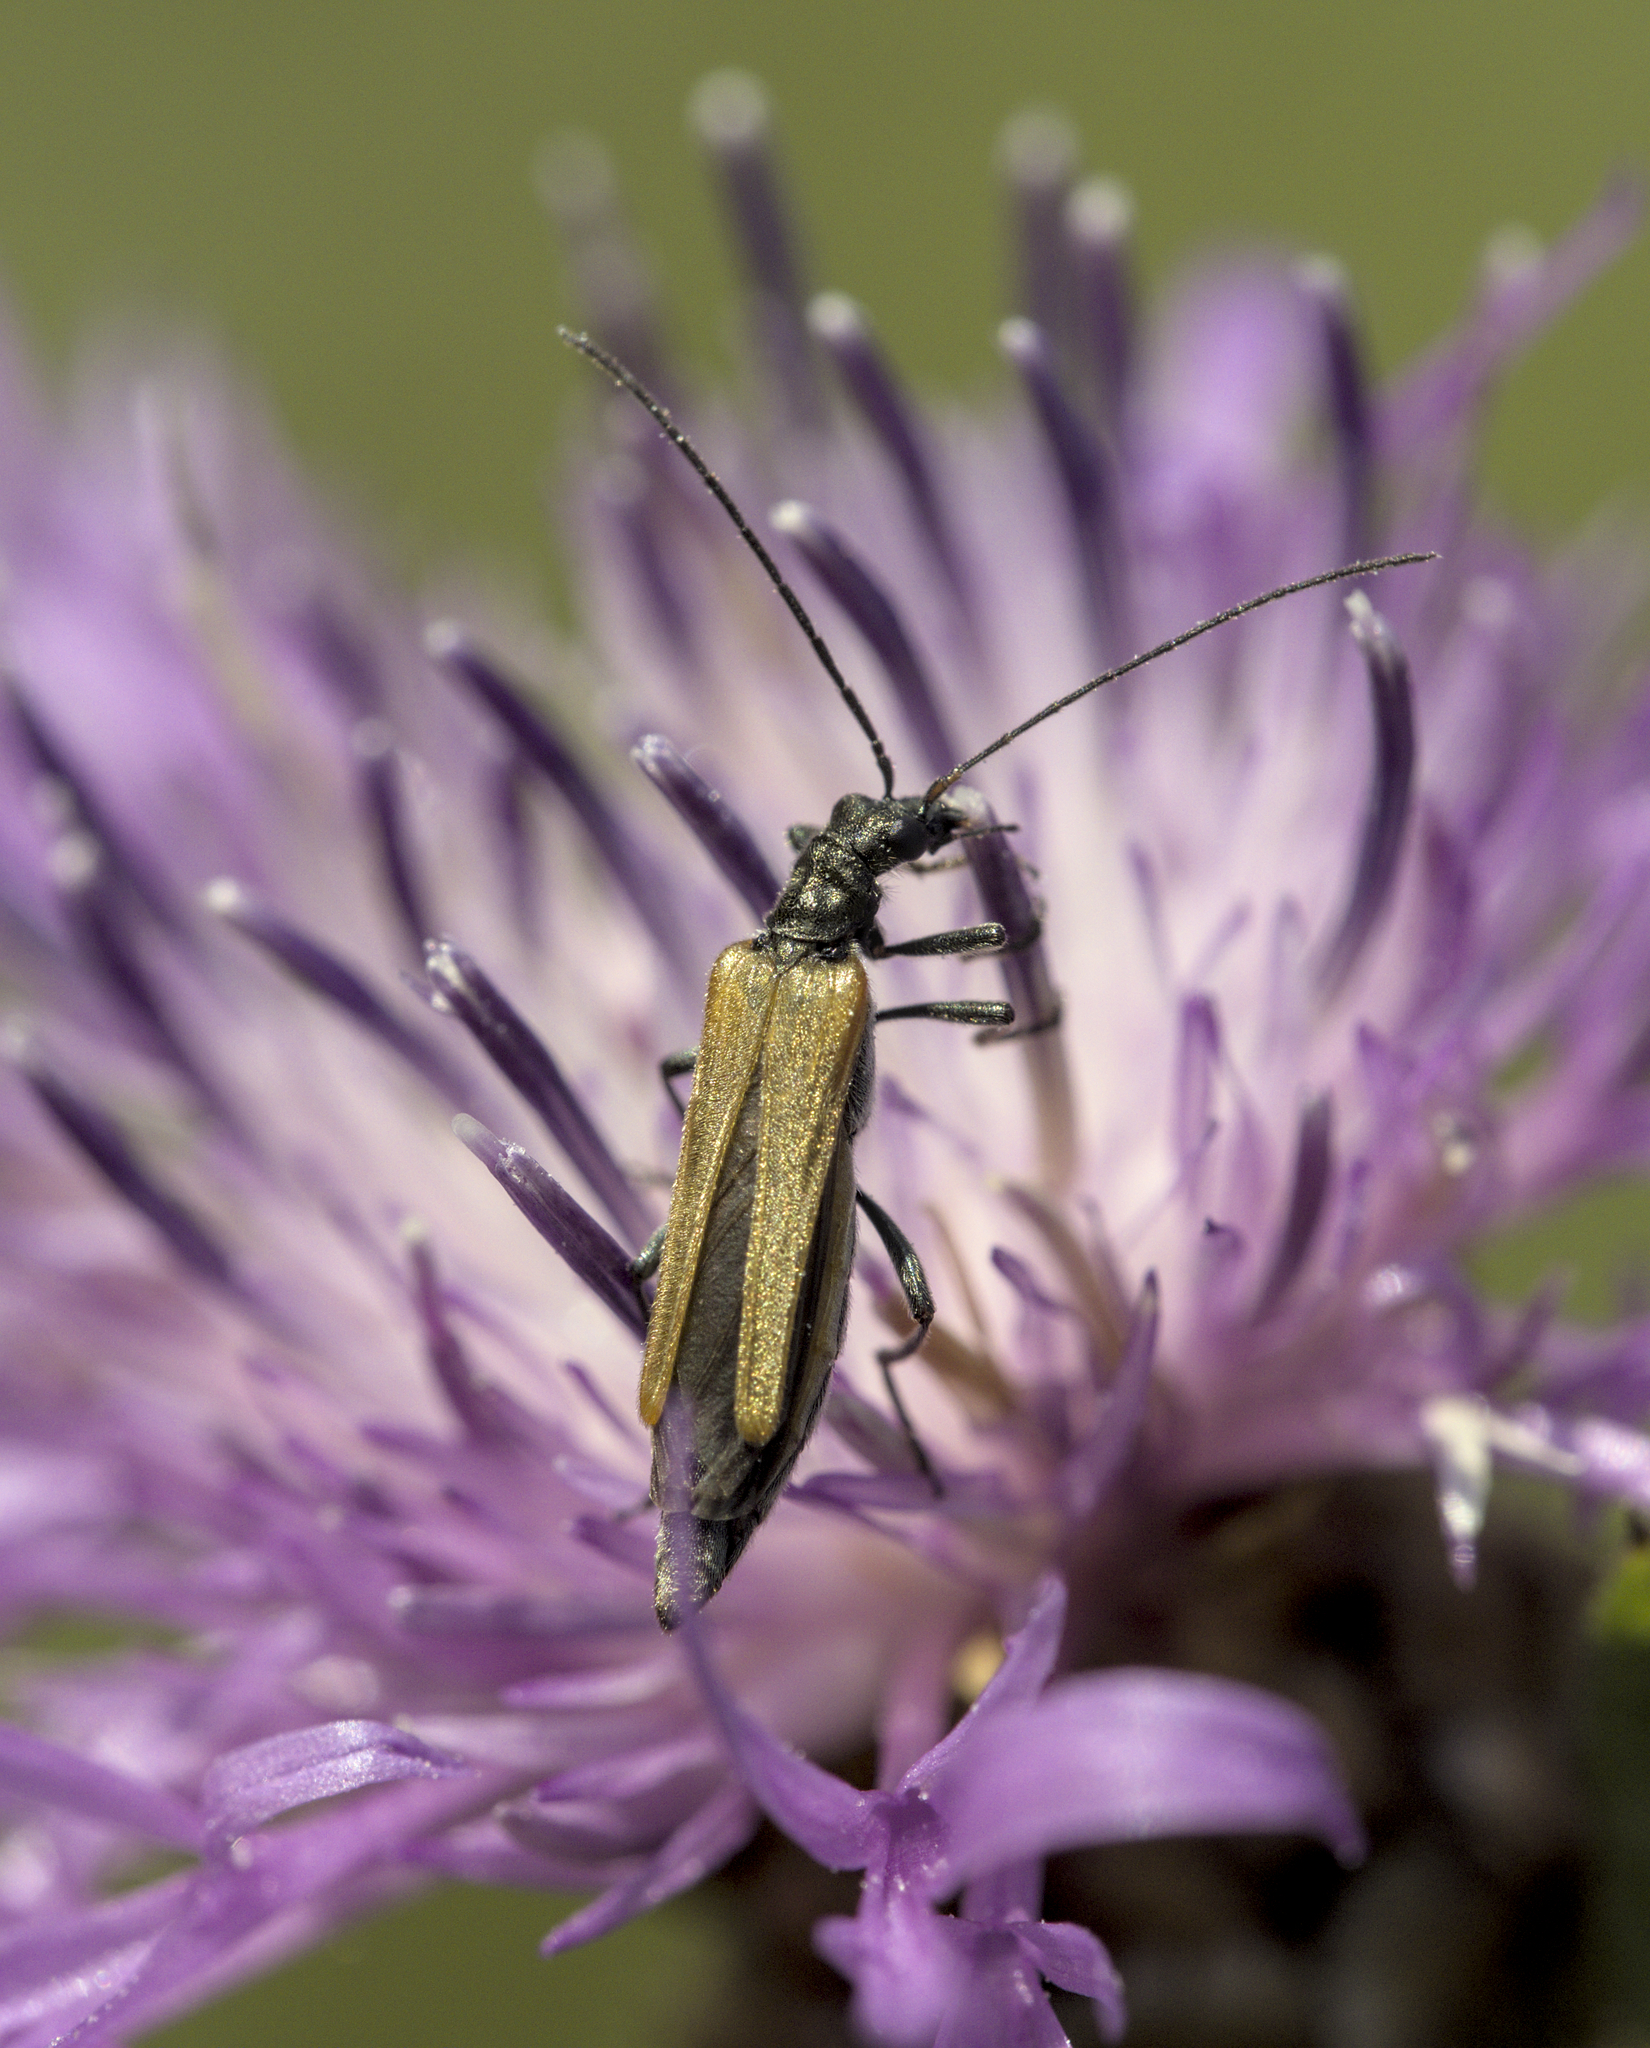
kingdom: Animalia
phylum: Arthropoda
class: Insecta
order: Coleoptera
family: Oedemeridae
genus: Oedemera
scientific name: Oedemera femorata
